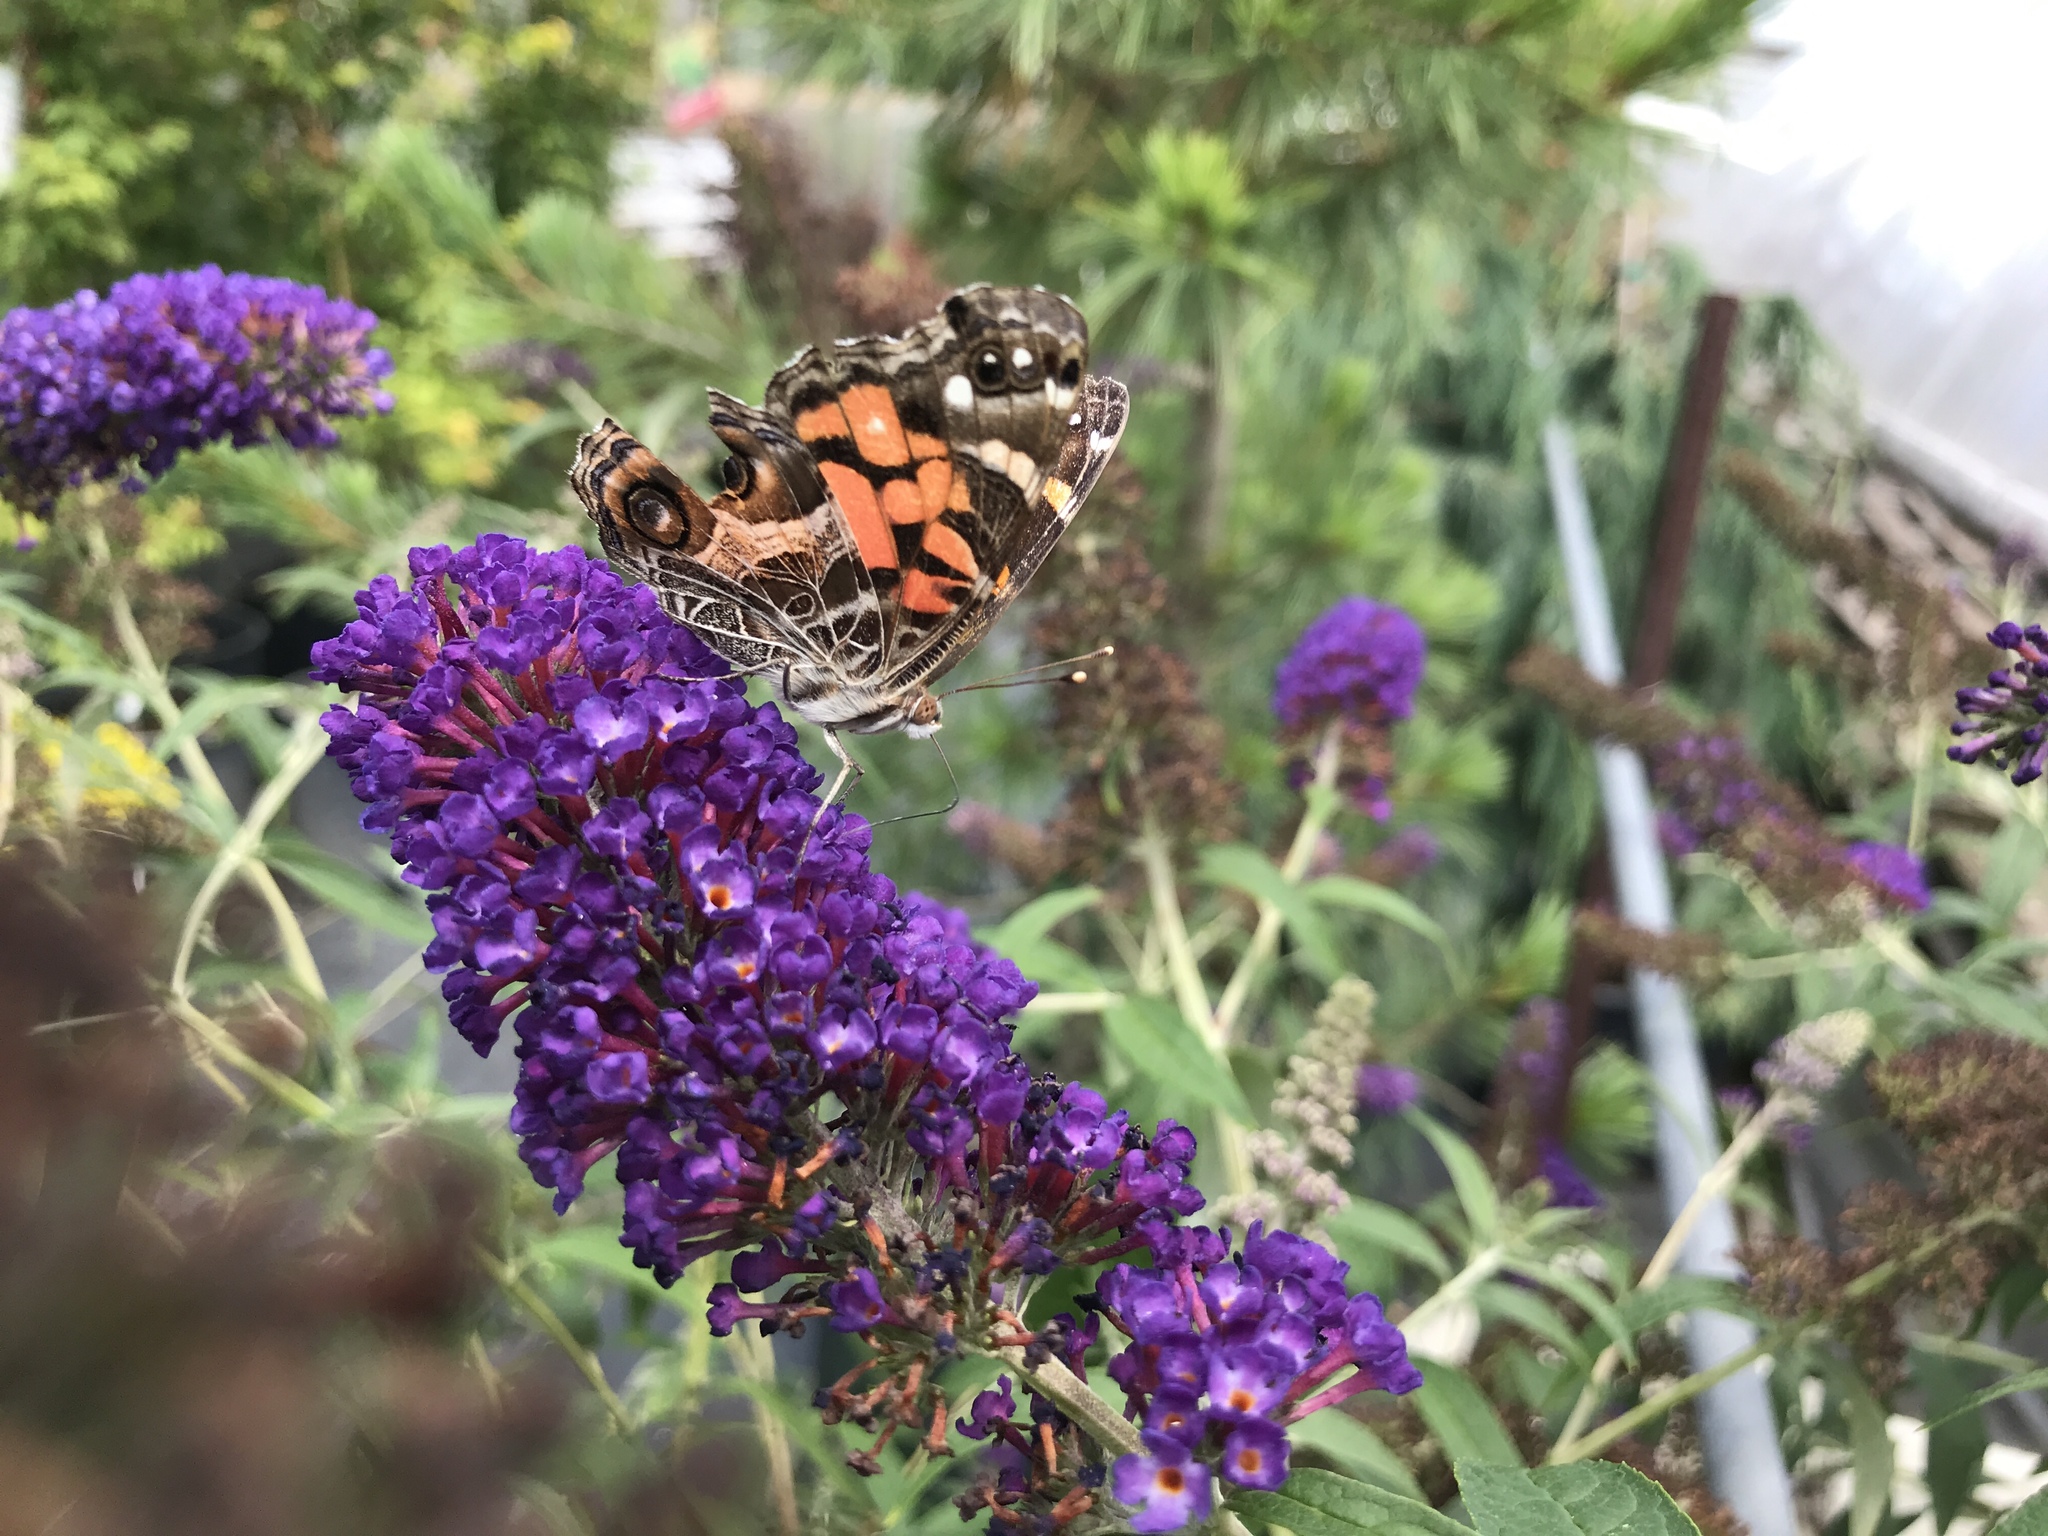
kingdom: Animalia
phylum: Arthropoda
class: Insecta
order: Lepidoptera
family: Nymphalidae
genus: Vanessa
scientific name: Vanessa virginiensis
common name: American lady
